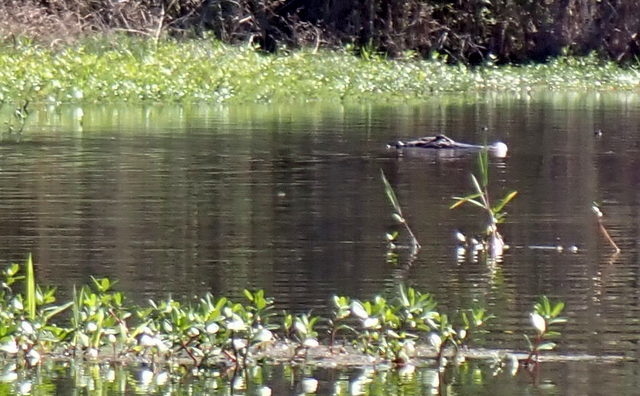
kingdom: Animalia
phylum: Chordata
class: Crocodylia
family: Alligatoridae
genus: Alligator
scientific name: Alligator mississippiensis
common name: American alligator
